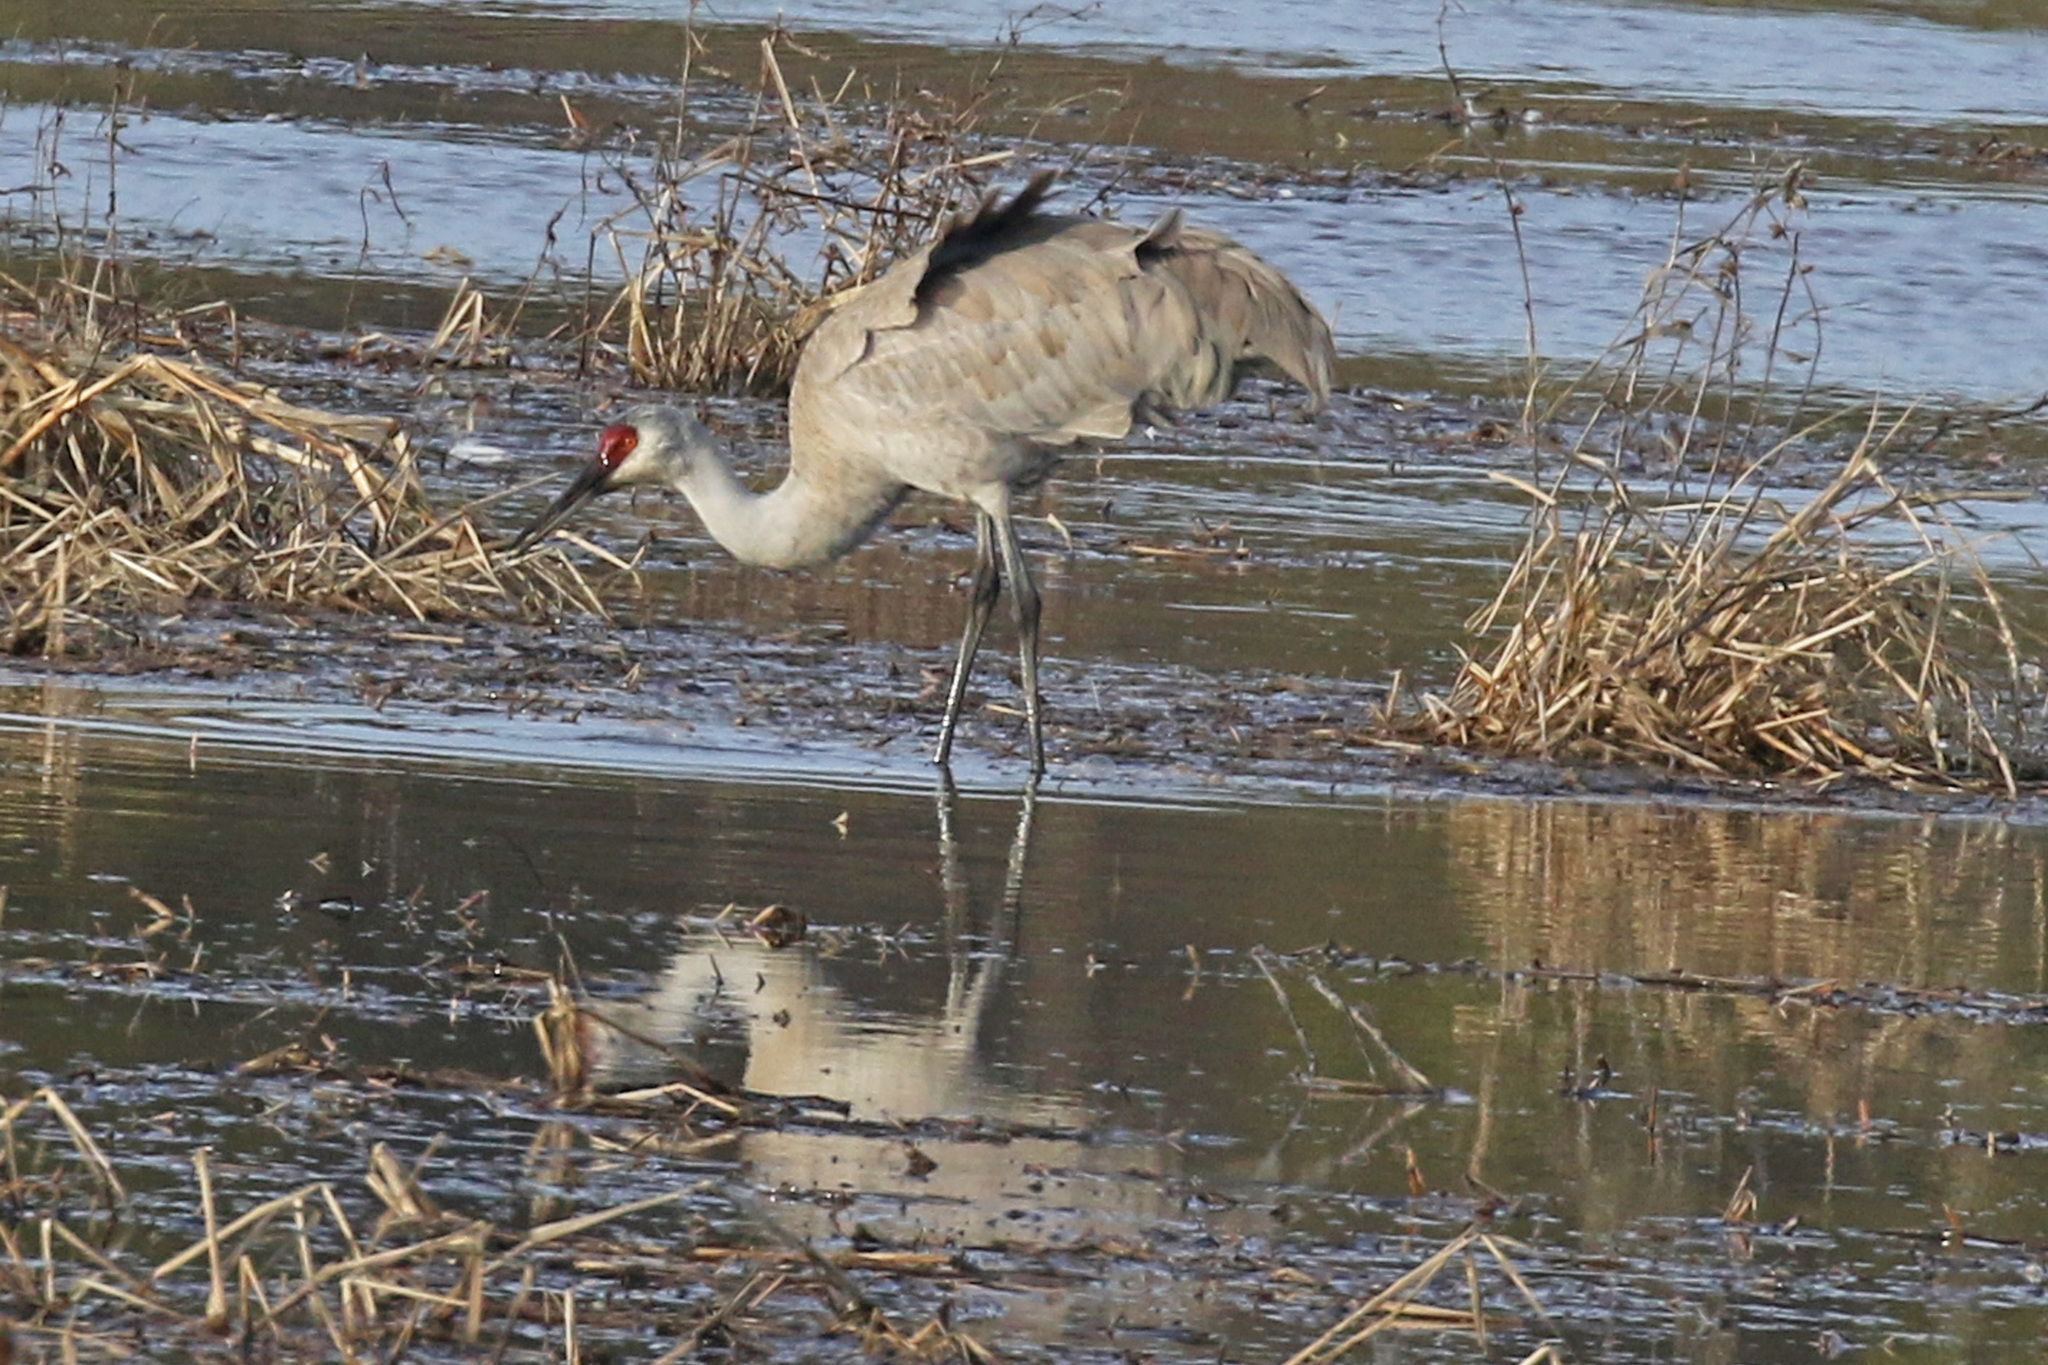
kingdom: Animalia
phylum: Chordata
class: Aves
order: Gruiformes
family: Gruidae
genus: Grus
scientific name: Grus canadensis
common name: Sandhill crane
